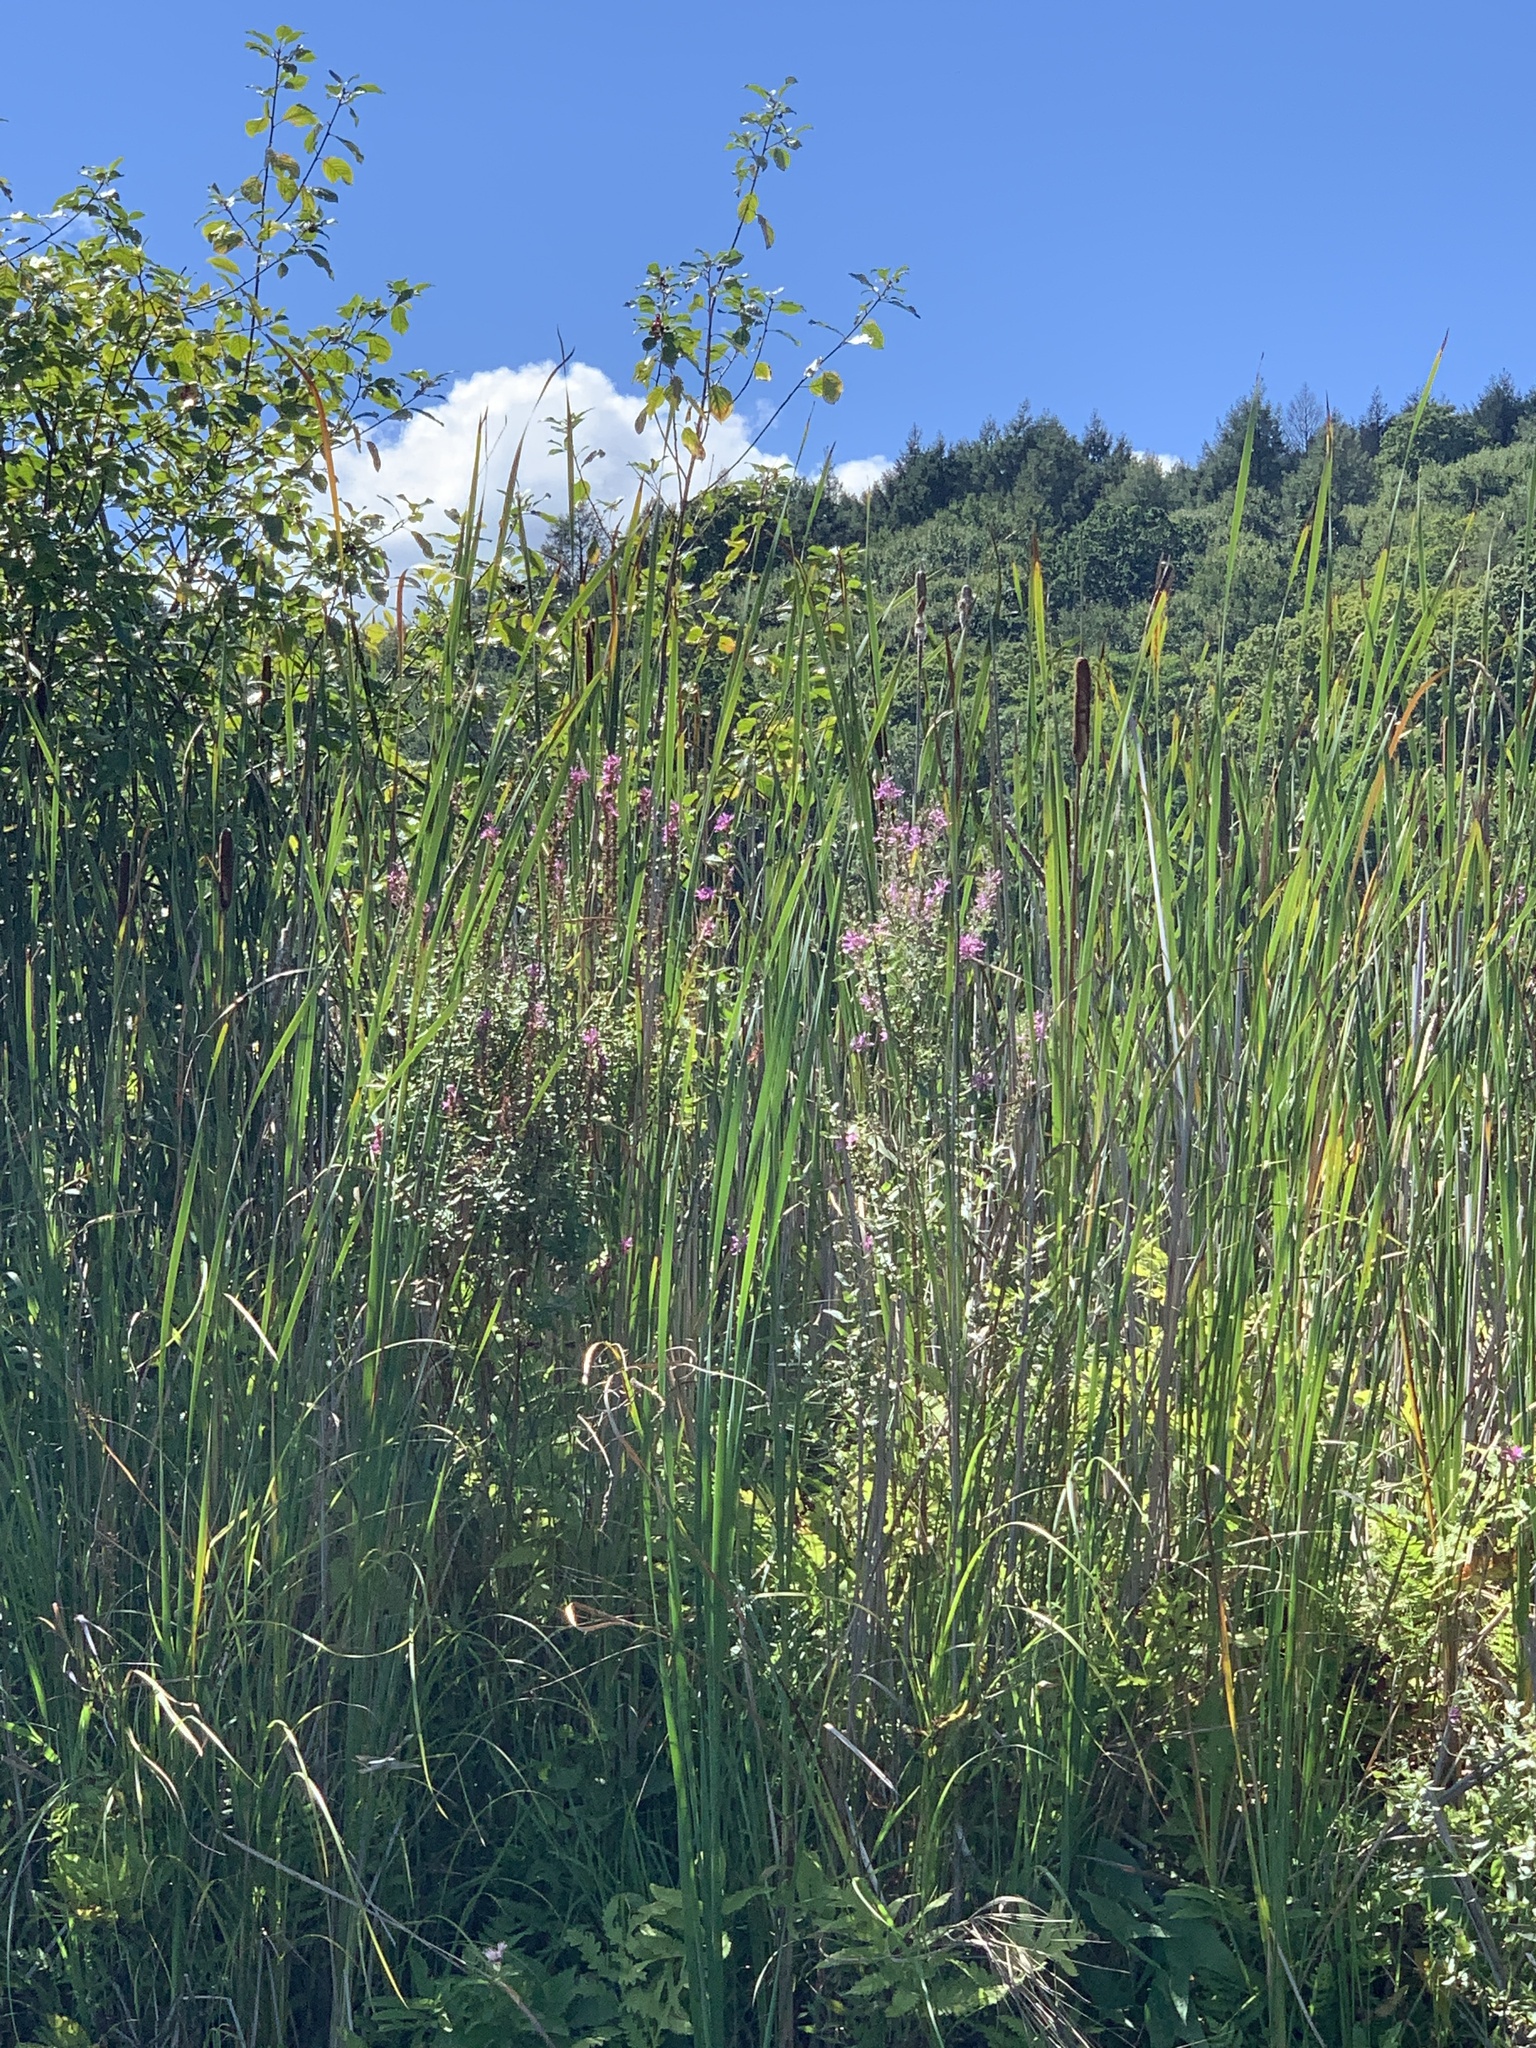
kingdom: Plantae
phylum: Tracheophyta
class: Magnoliopsida
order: Myrtales
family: Lythraceae
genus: Lythrum
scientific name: Lythrum salicaria
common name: Purple loosestrife
